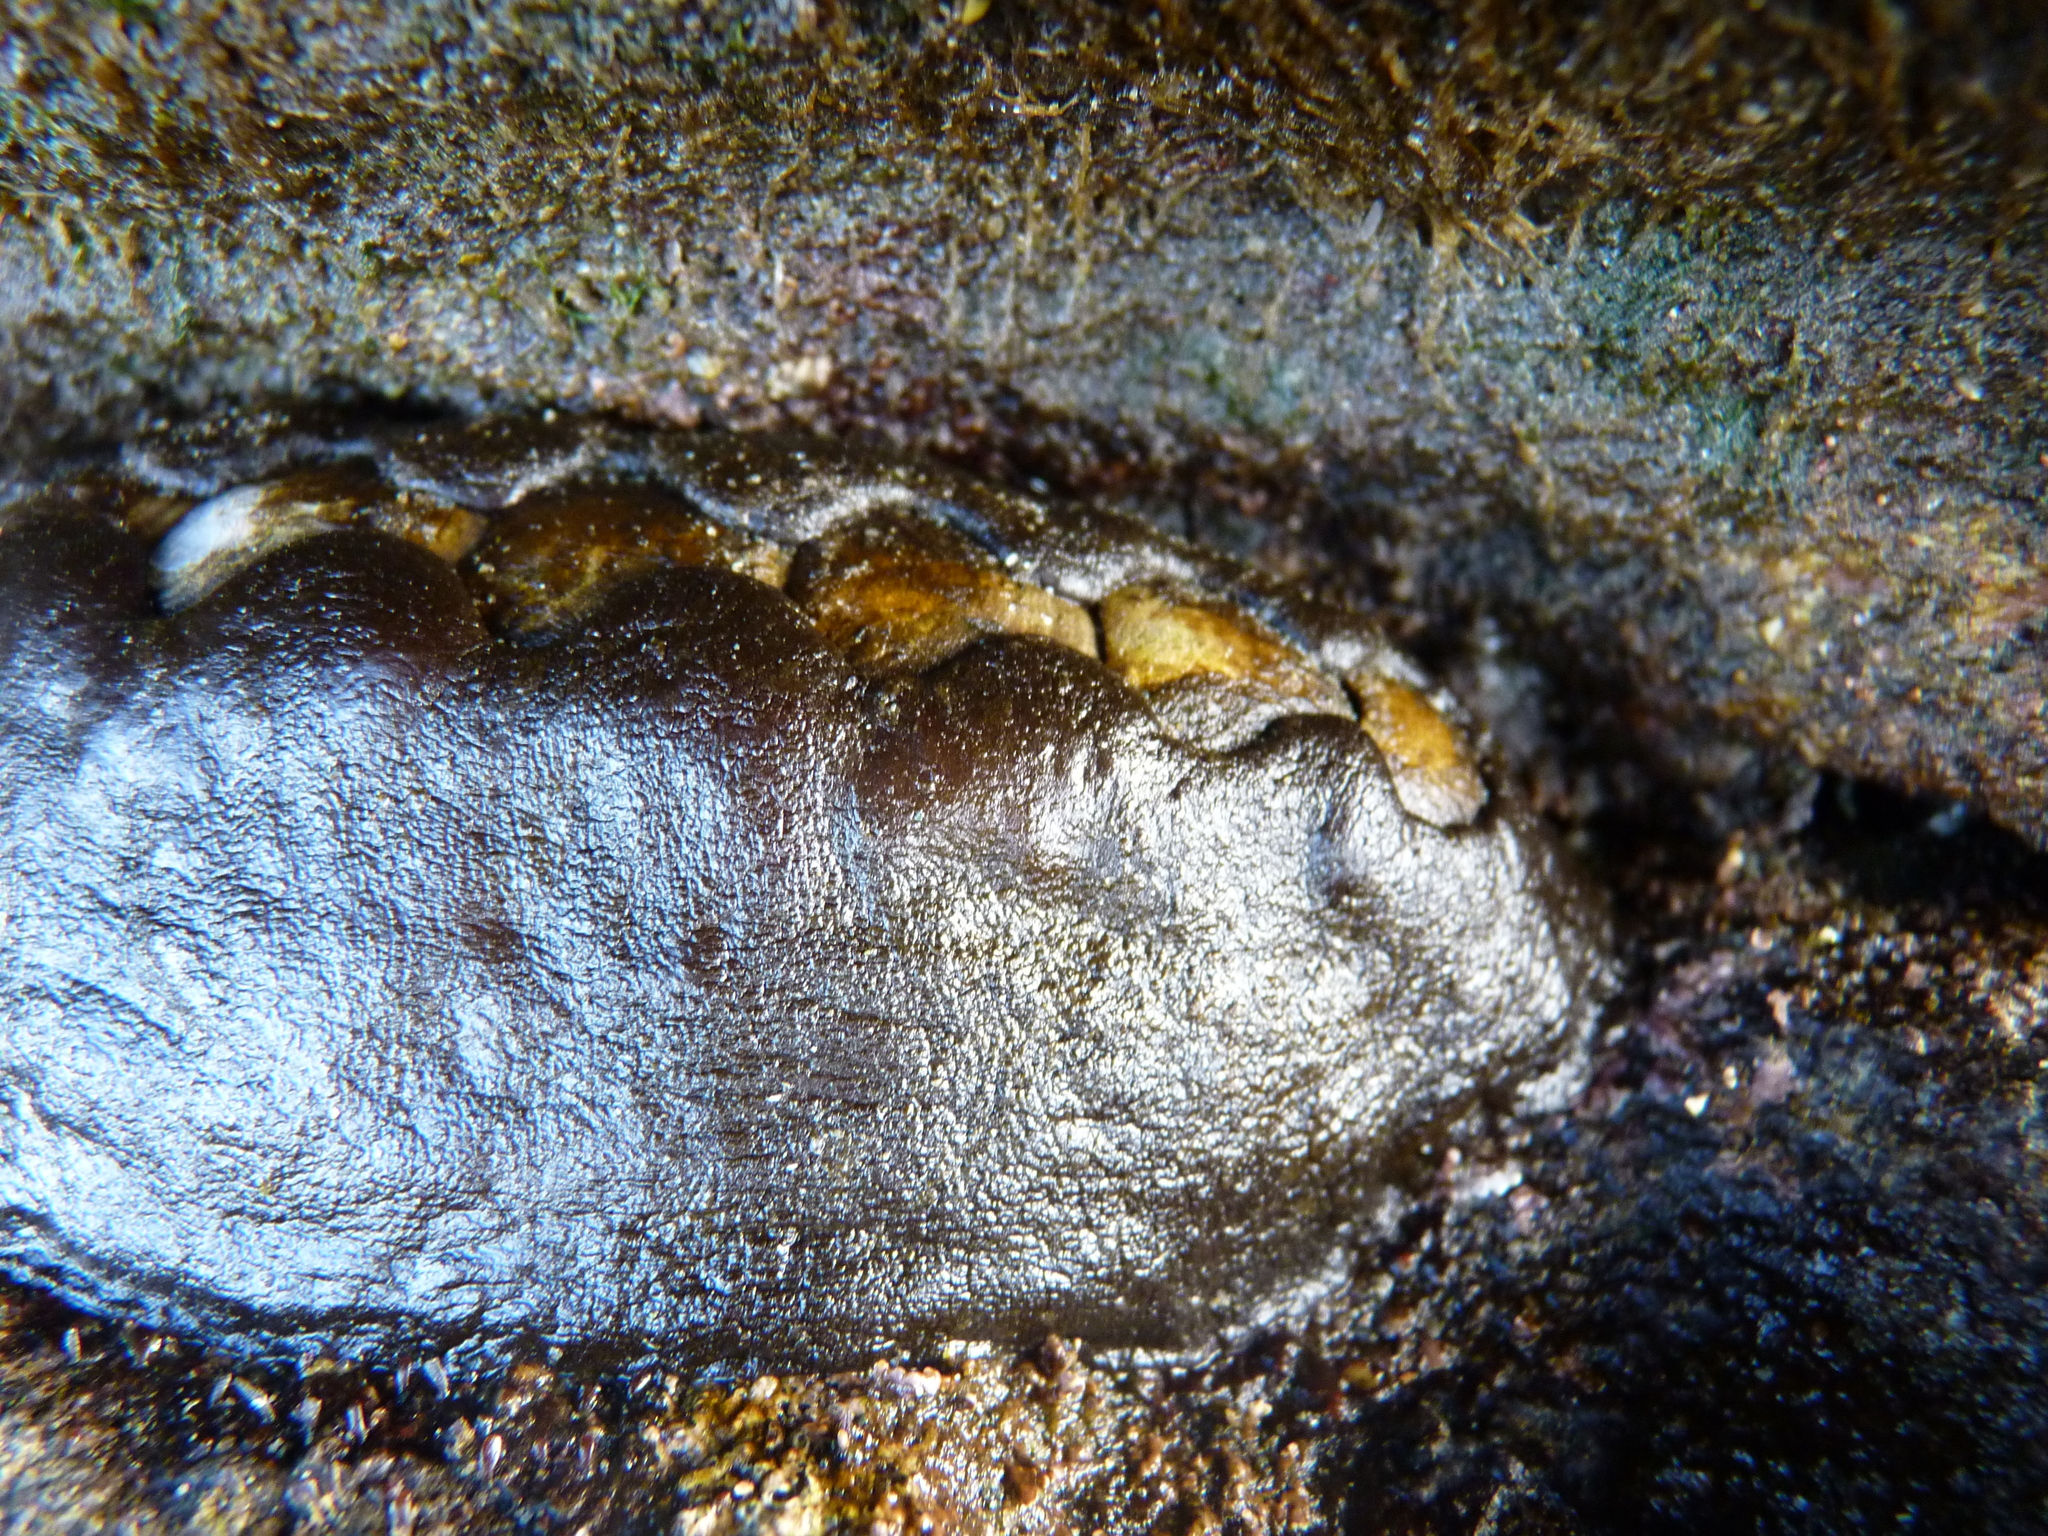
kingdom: Animalia
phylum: Mollusca
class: Polyplacophora
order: Chitonida
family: Mopaliidae
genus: Katharina
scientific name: Katharina tunicata
